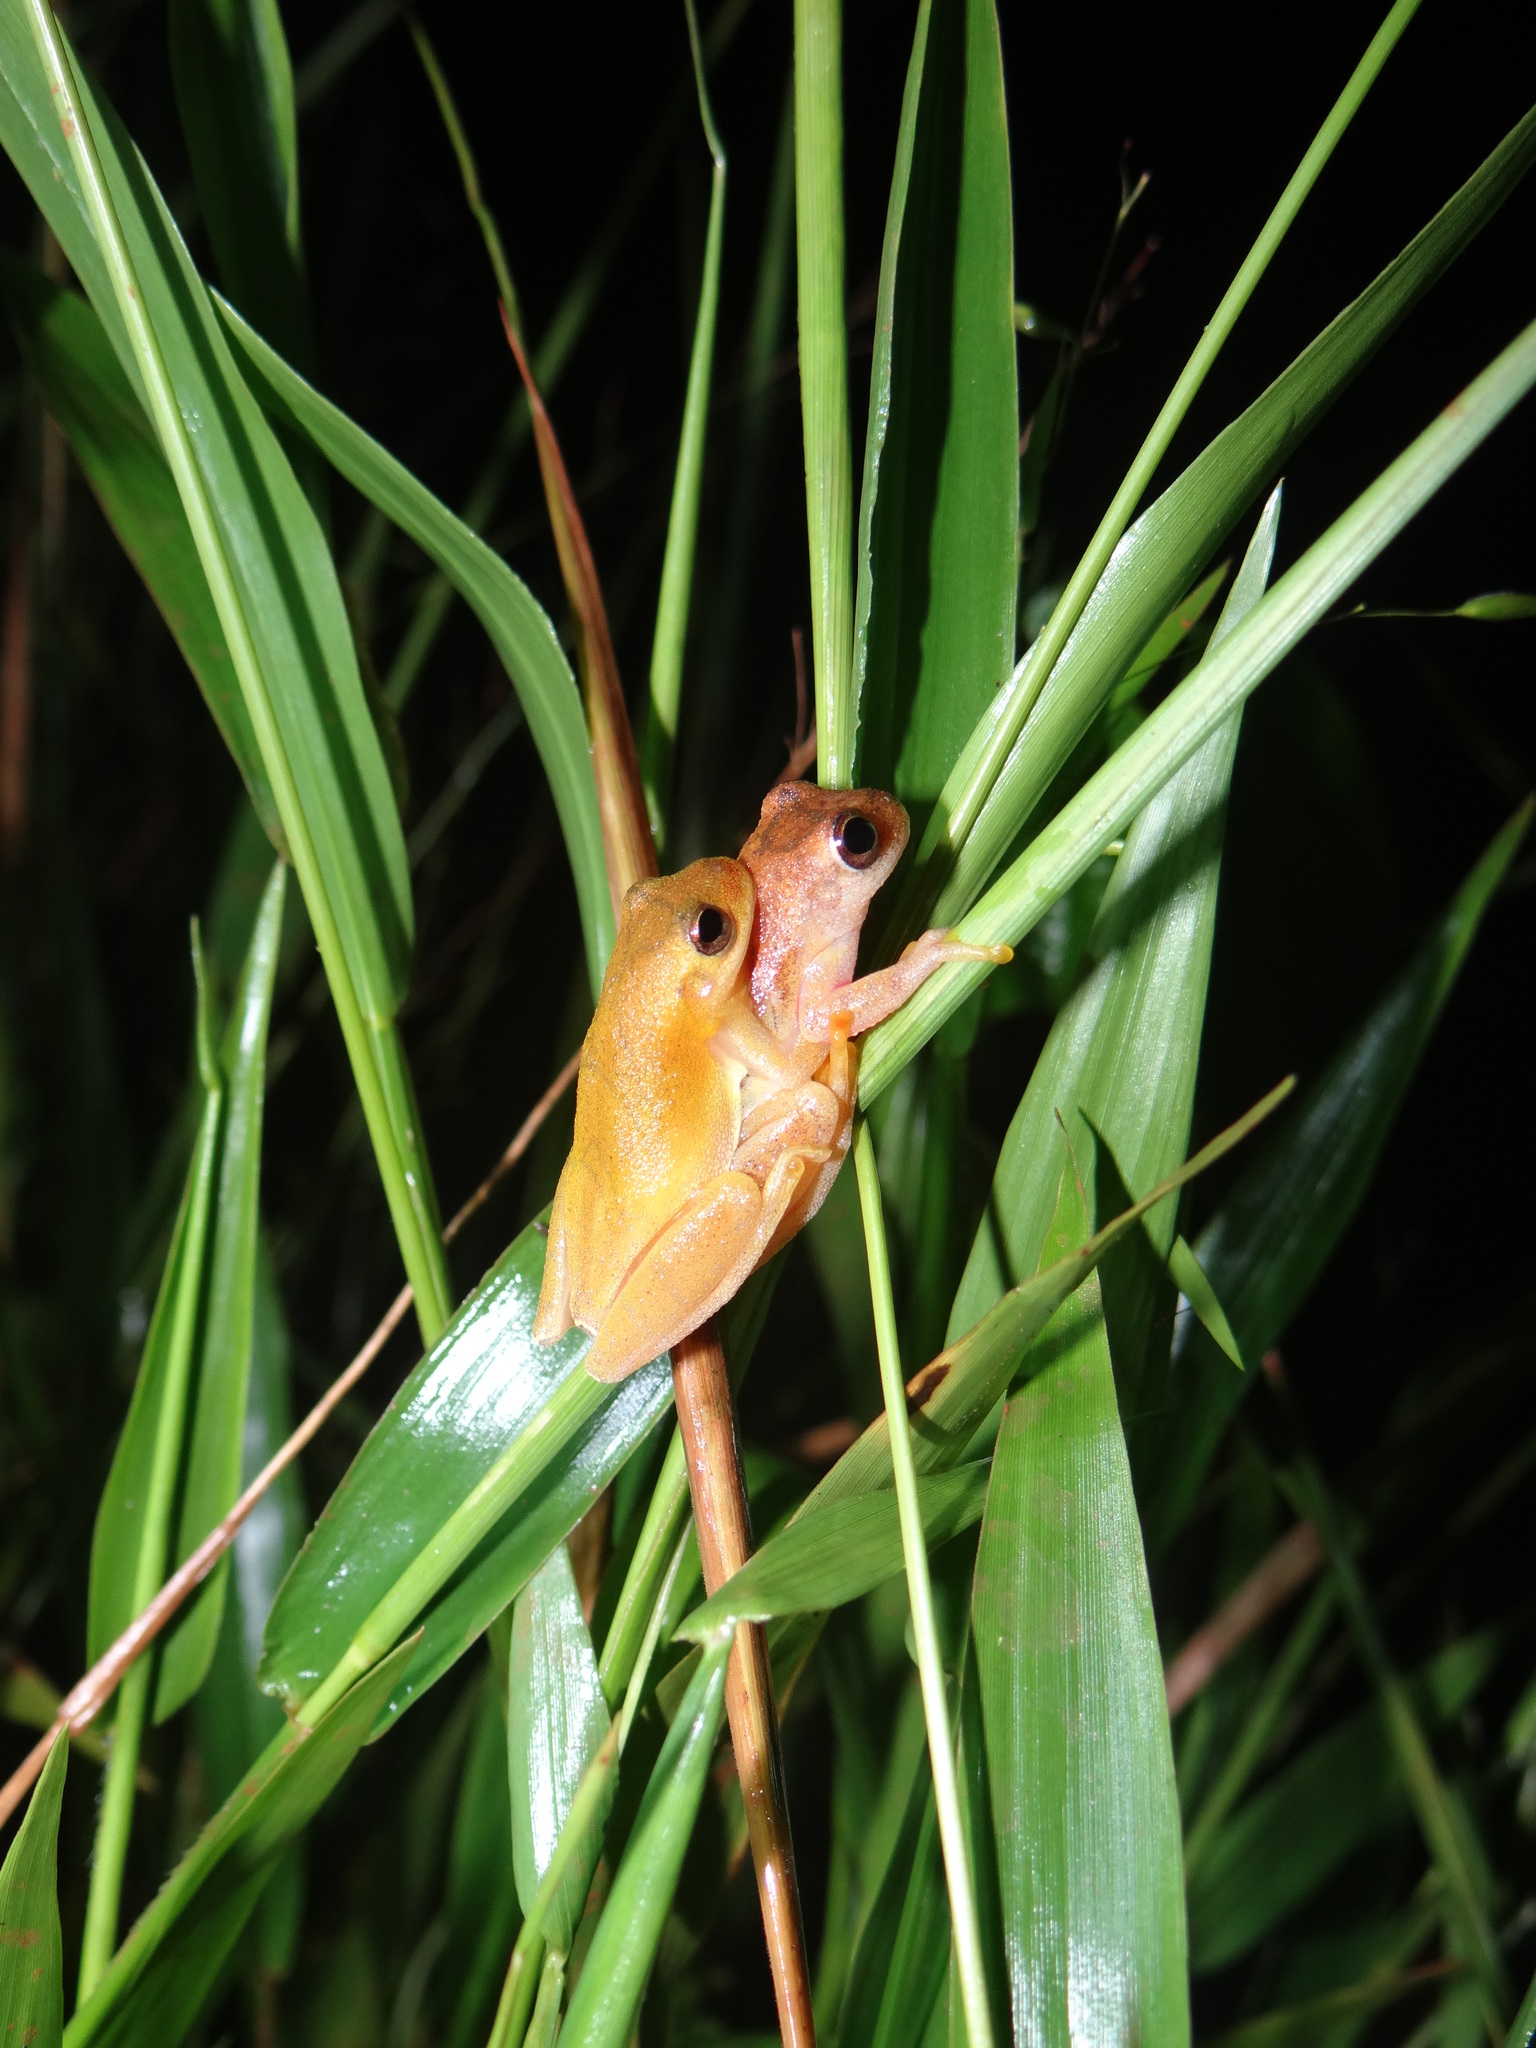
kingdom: Animalia
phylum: Chordata
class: Amphibia
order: Anura
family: Hylidae
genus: Dendropsophus
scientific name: Dendropsophus minutus
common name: Lesser treefrog
